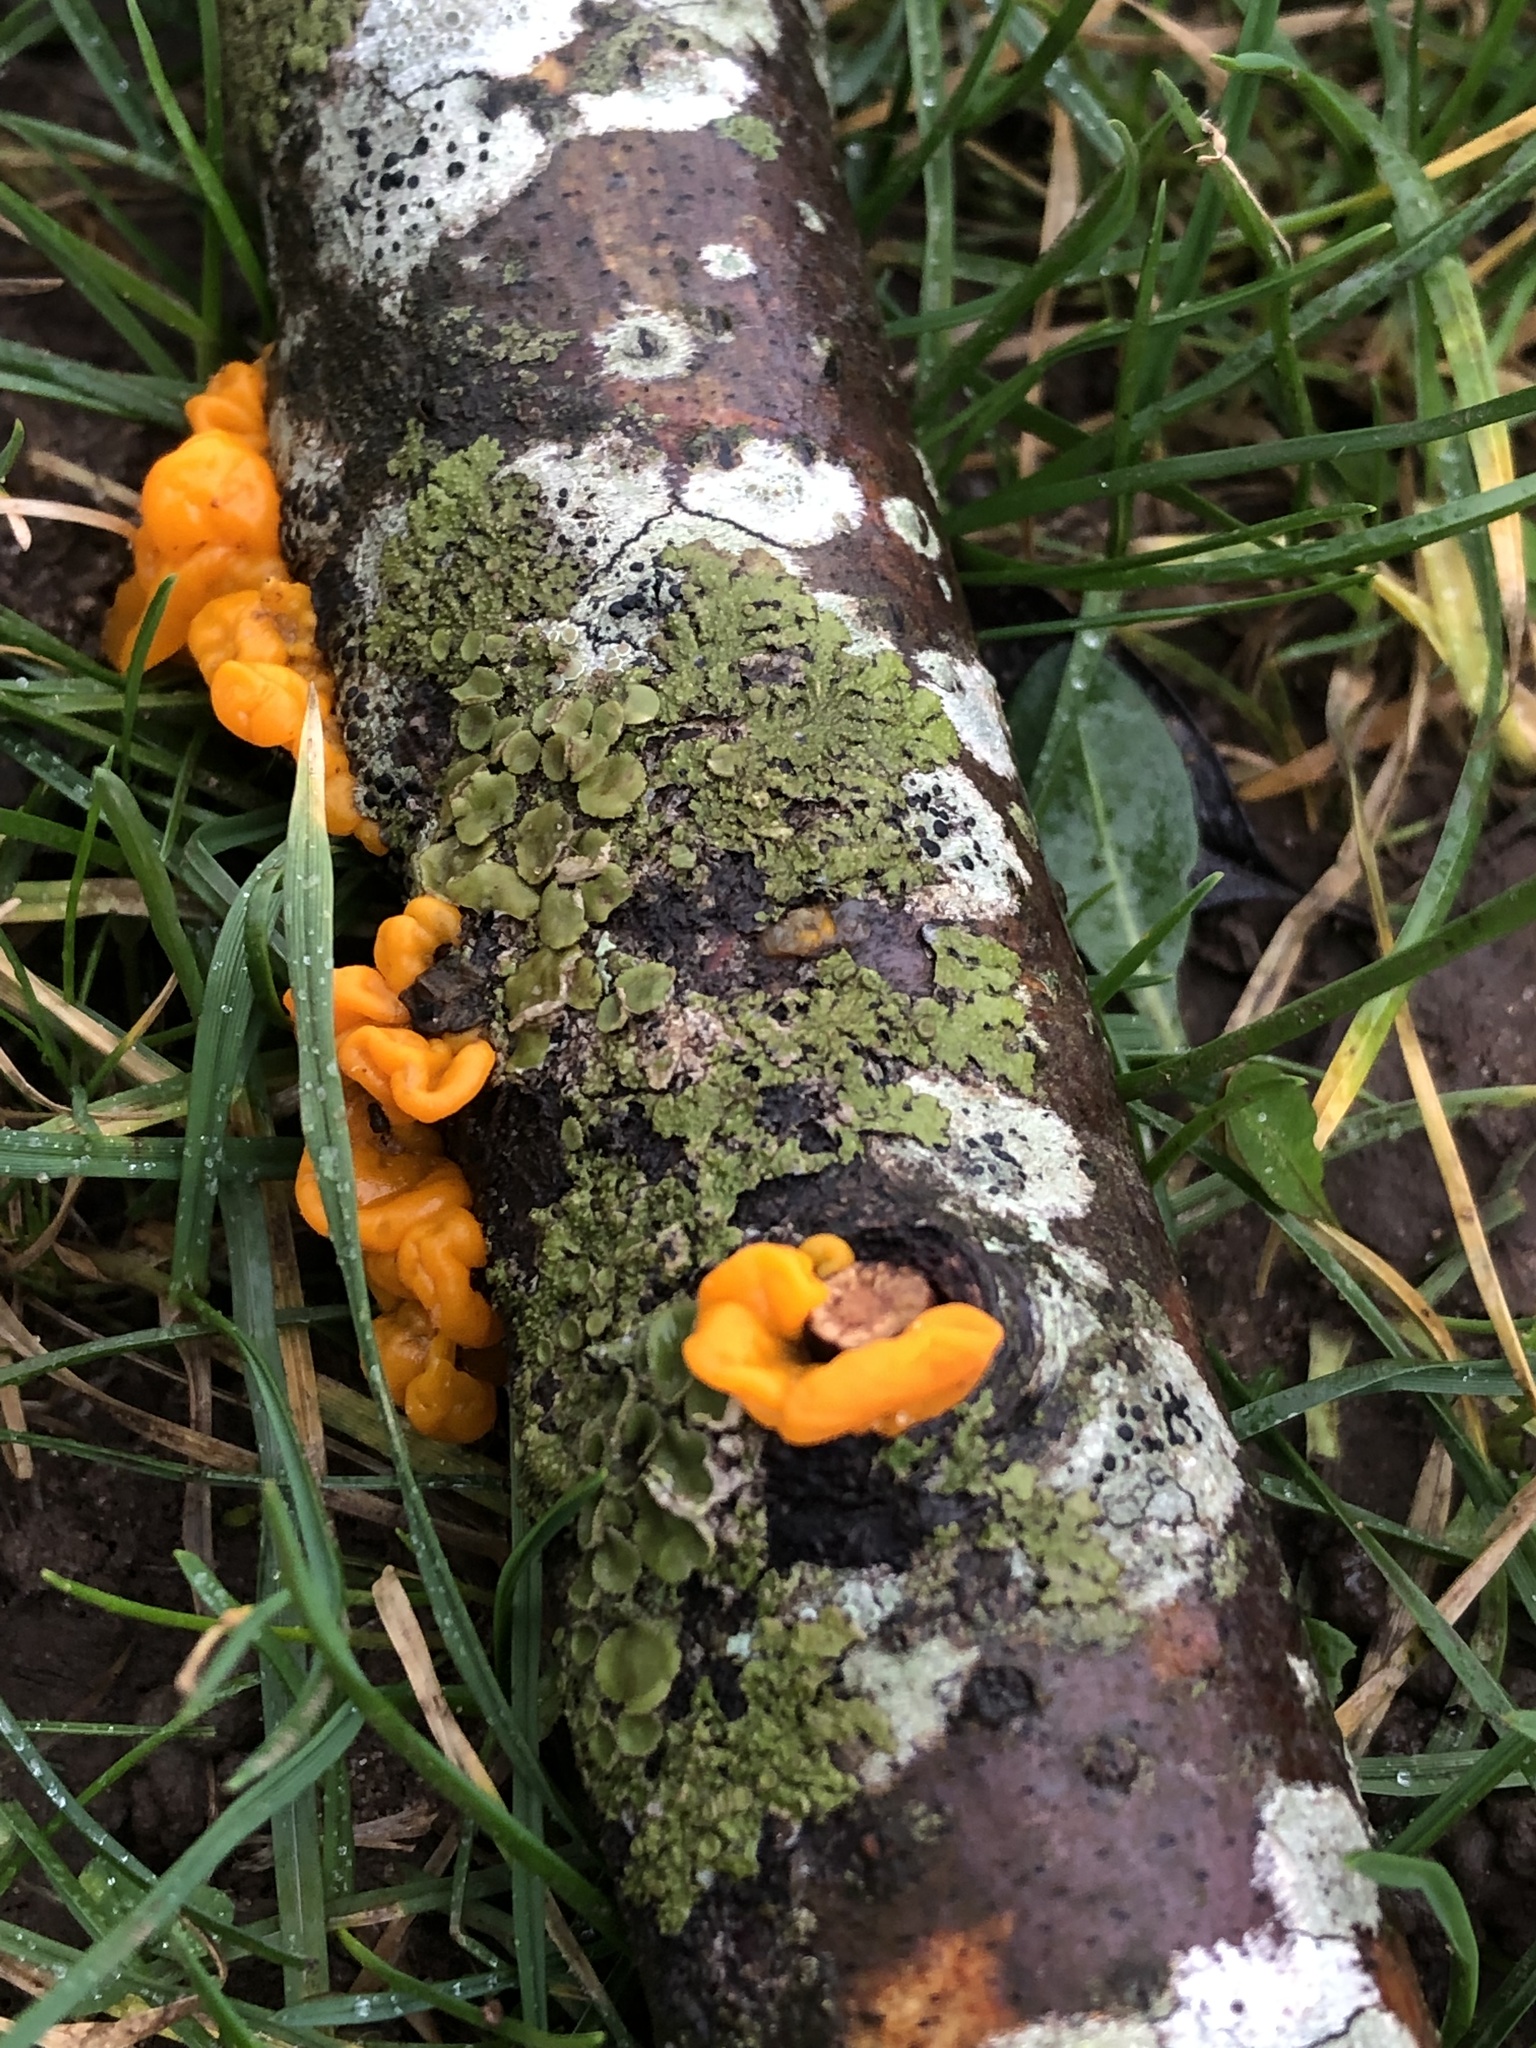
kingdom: Fungi
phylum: Basidiomycota
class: Tremellomycetes
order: Tremellales
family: Tremellaceae
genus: Tremella
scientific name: Tremella mesenterica
